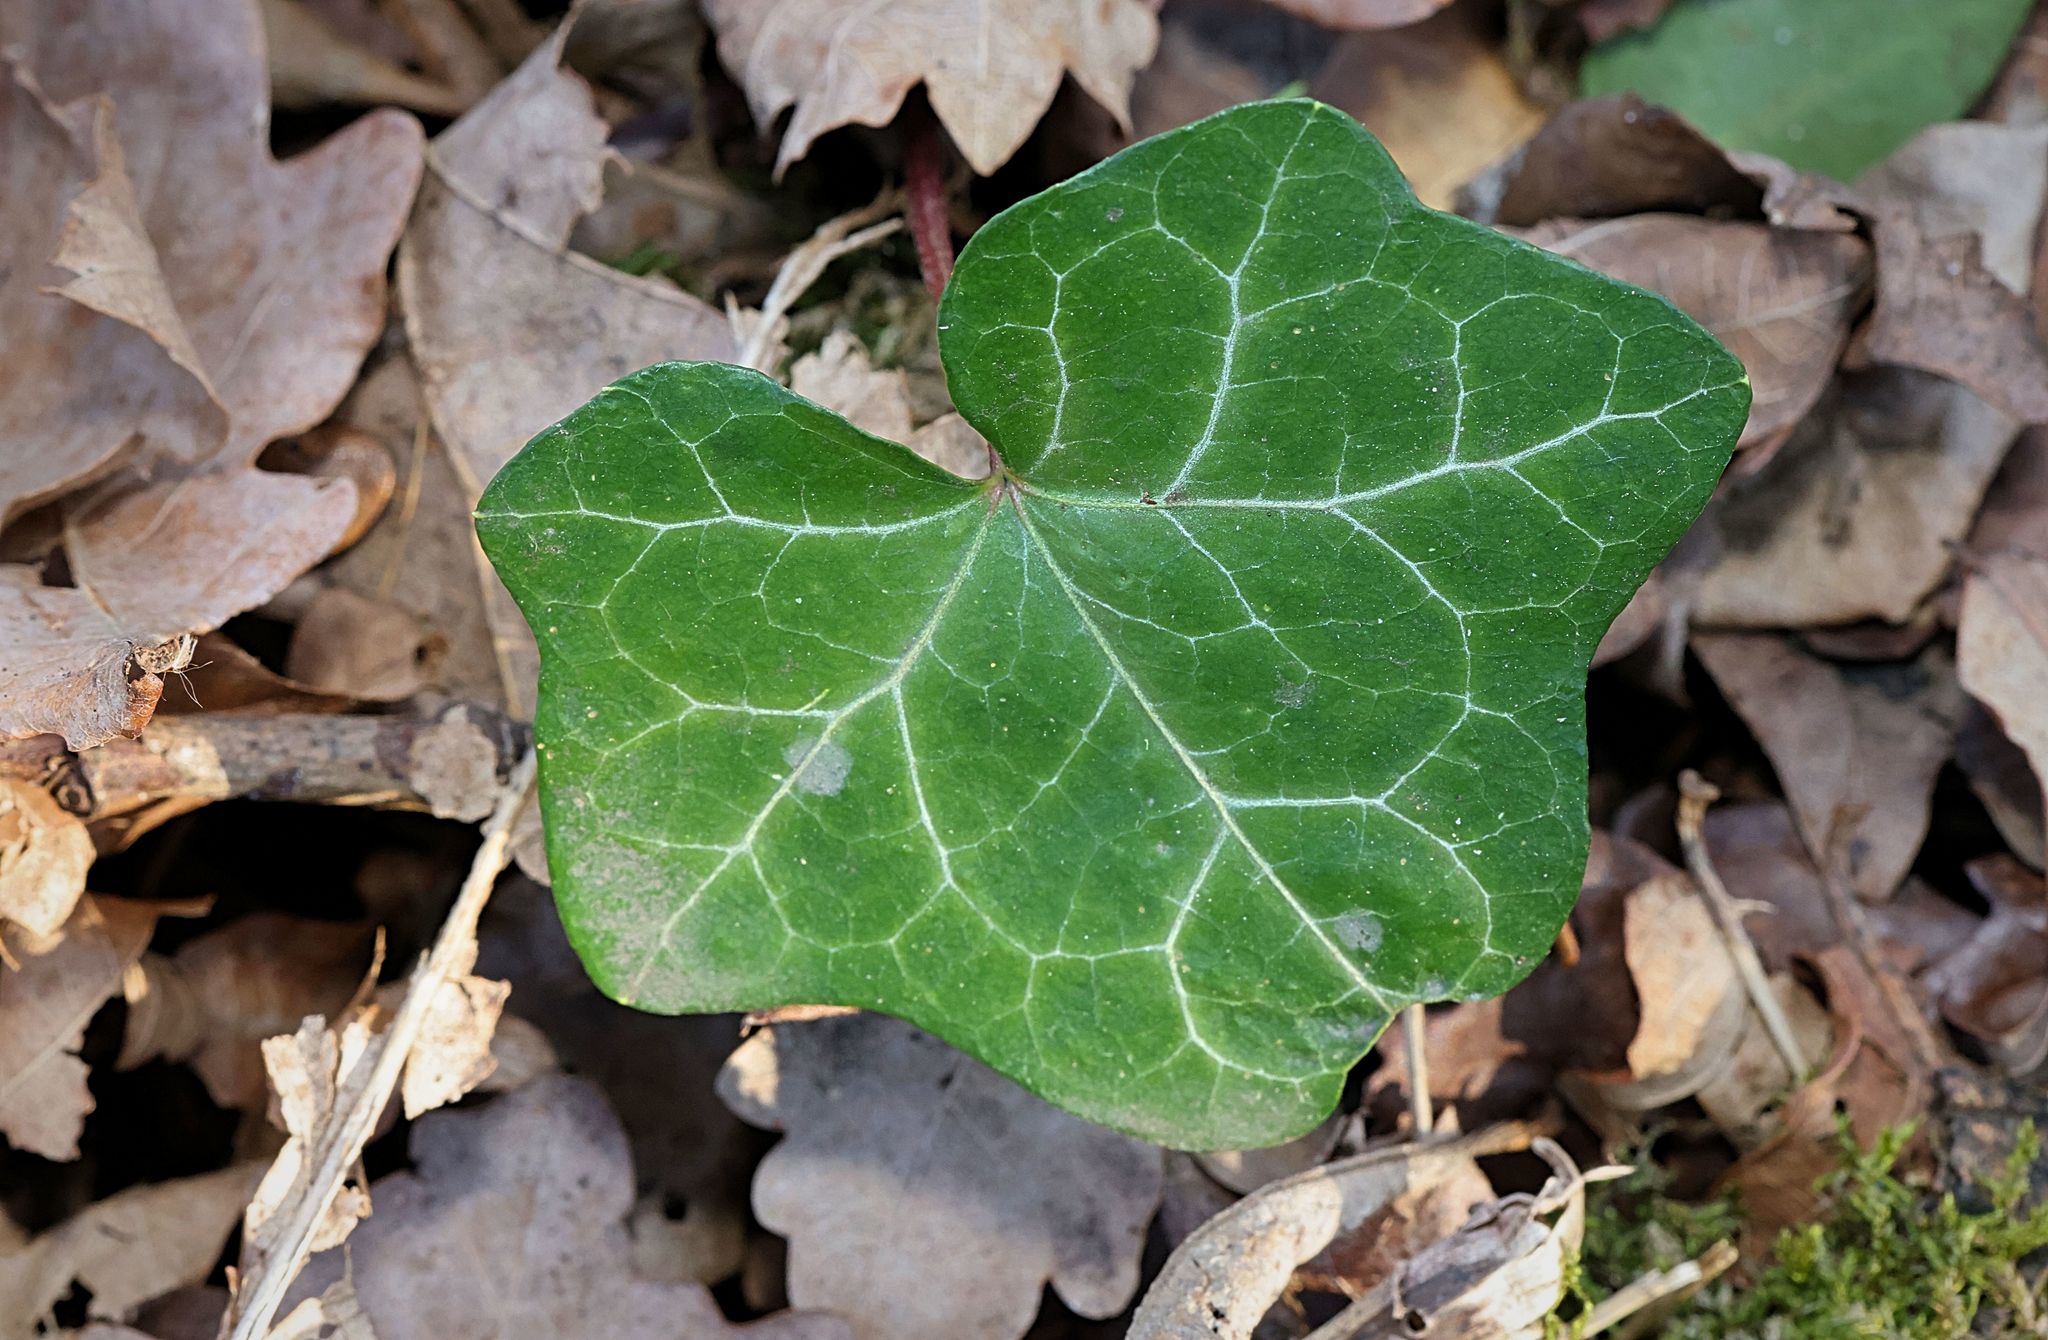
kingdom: Plantae
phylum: Tracheophyta
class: Magnoliopsida
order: Apiales
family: Araliaceae
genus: Hedera
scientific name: Hedera helix
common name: Ivy
